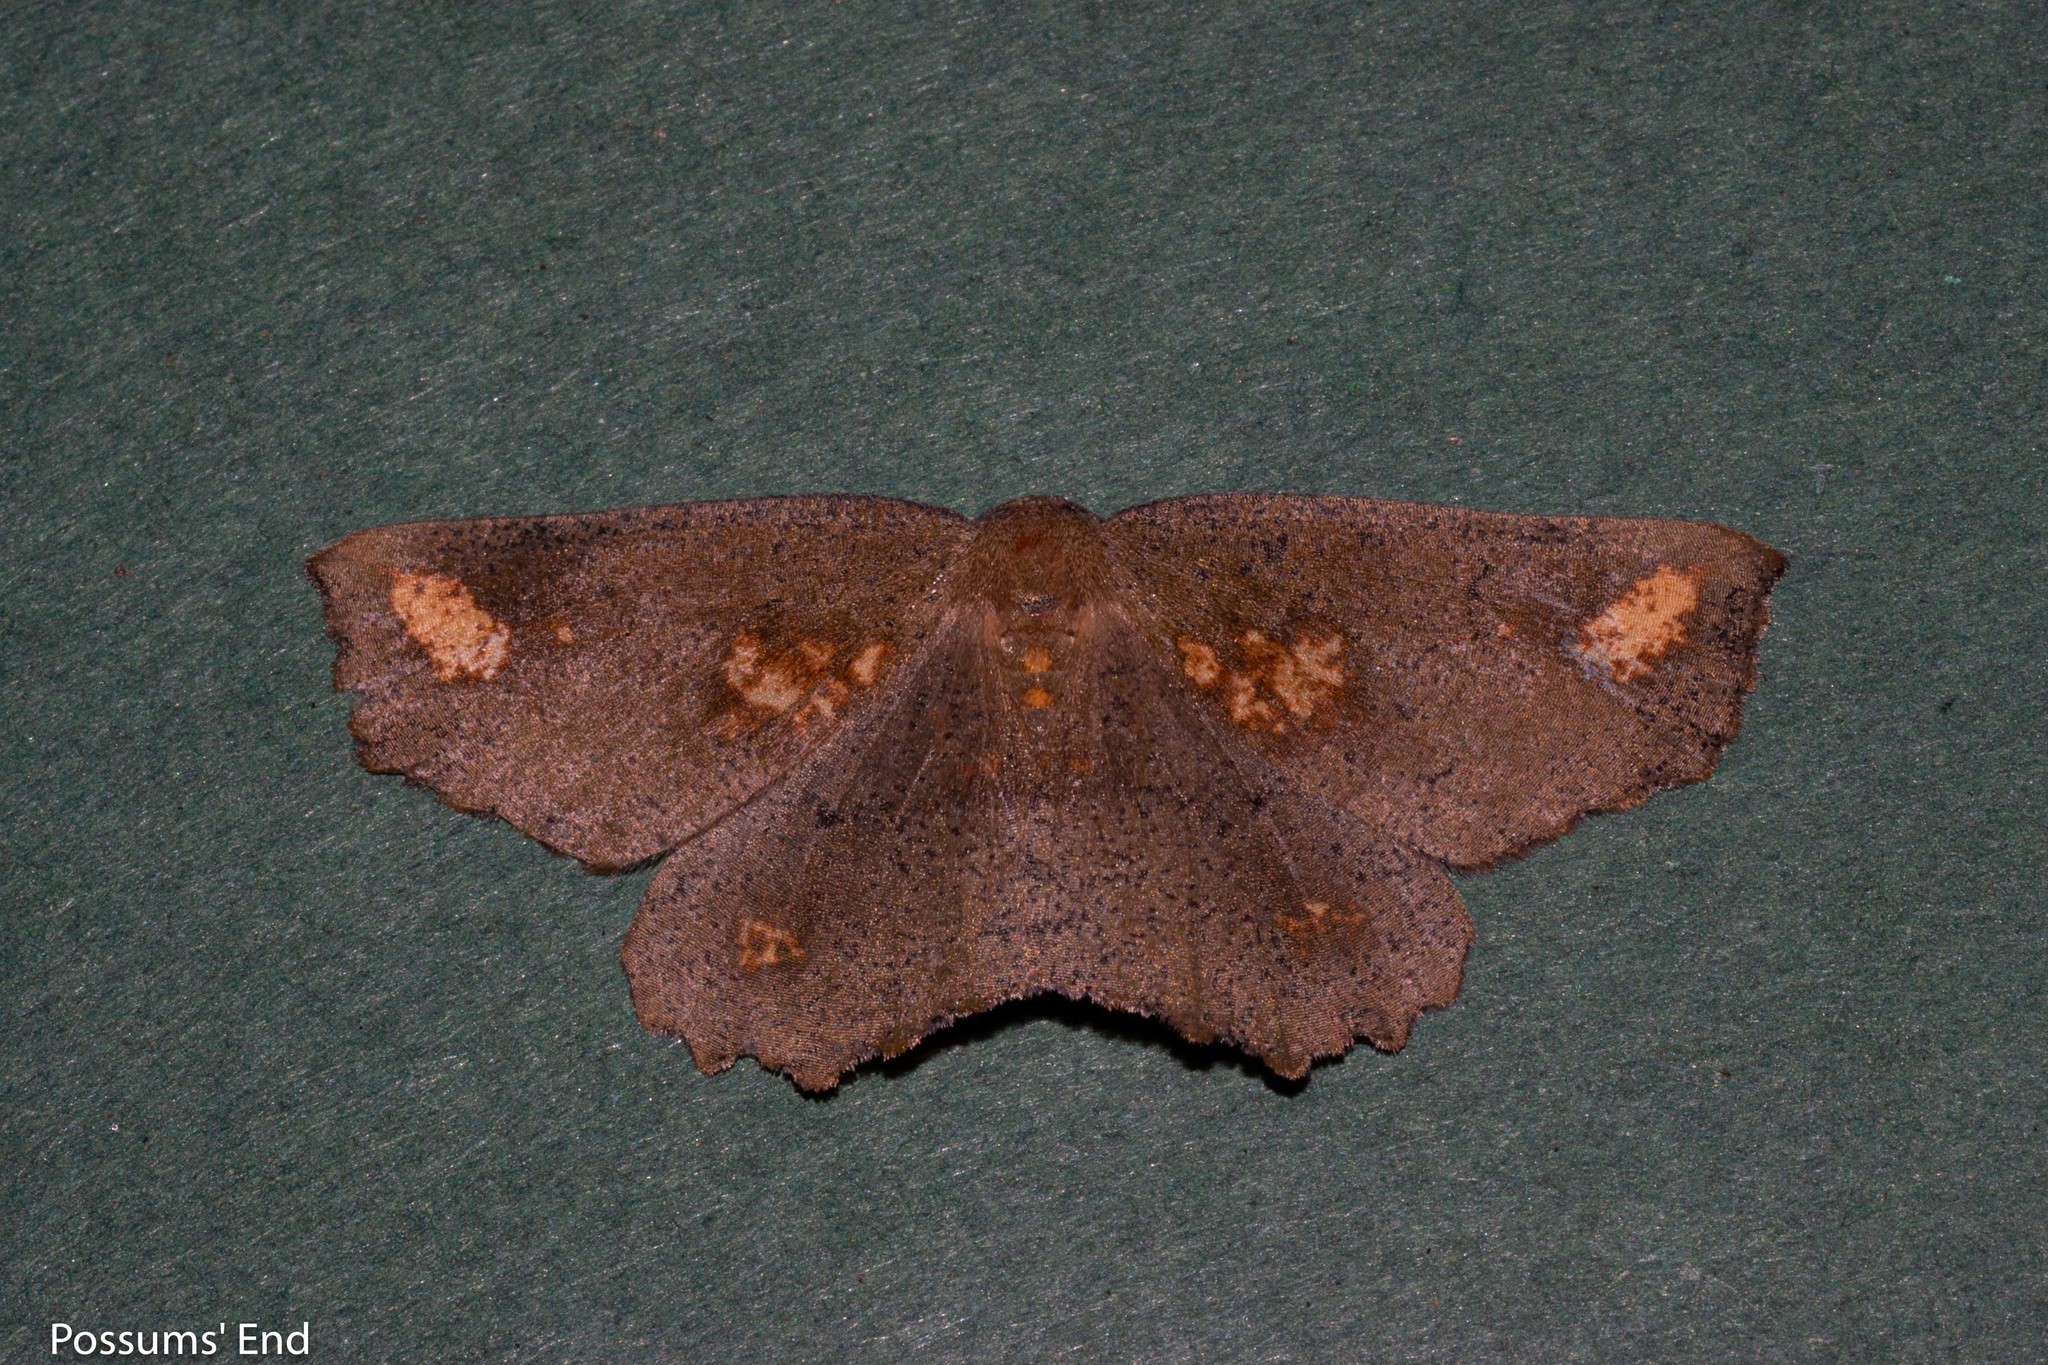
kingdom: Animalia
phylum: Arthropoda
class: Insecta
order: Lepidoptera
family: Geometridae
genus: Xyridacma
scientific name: Xyridacma ustaria
